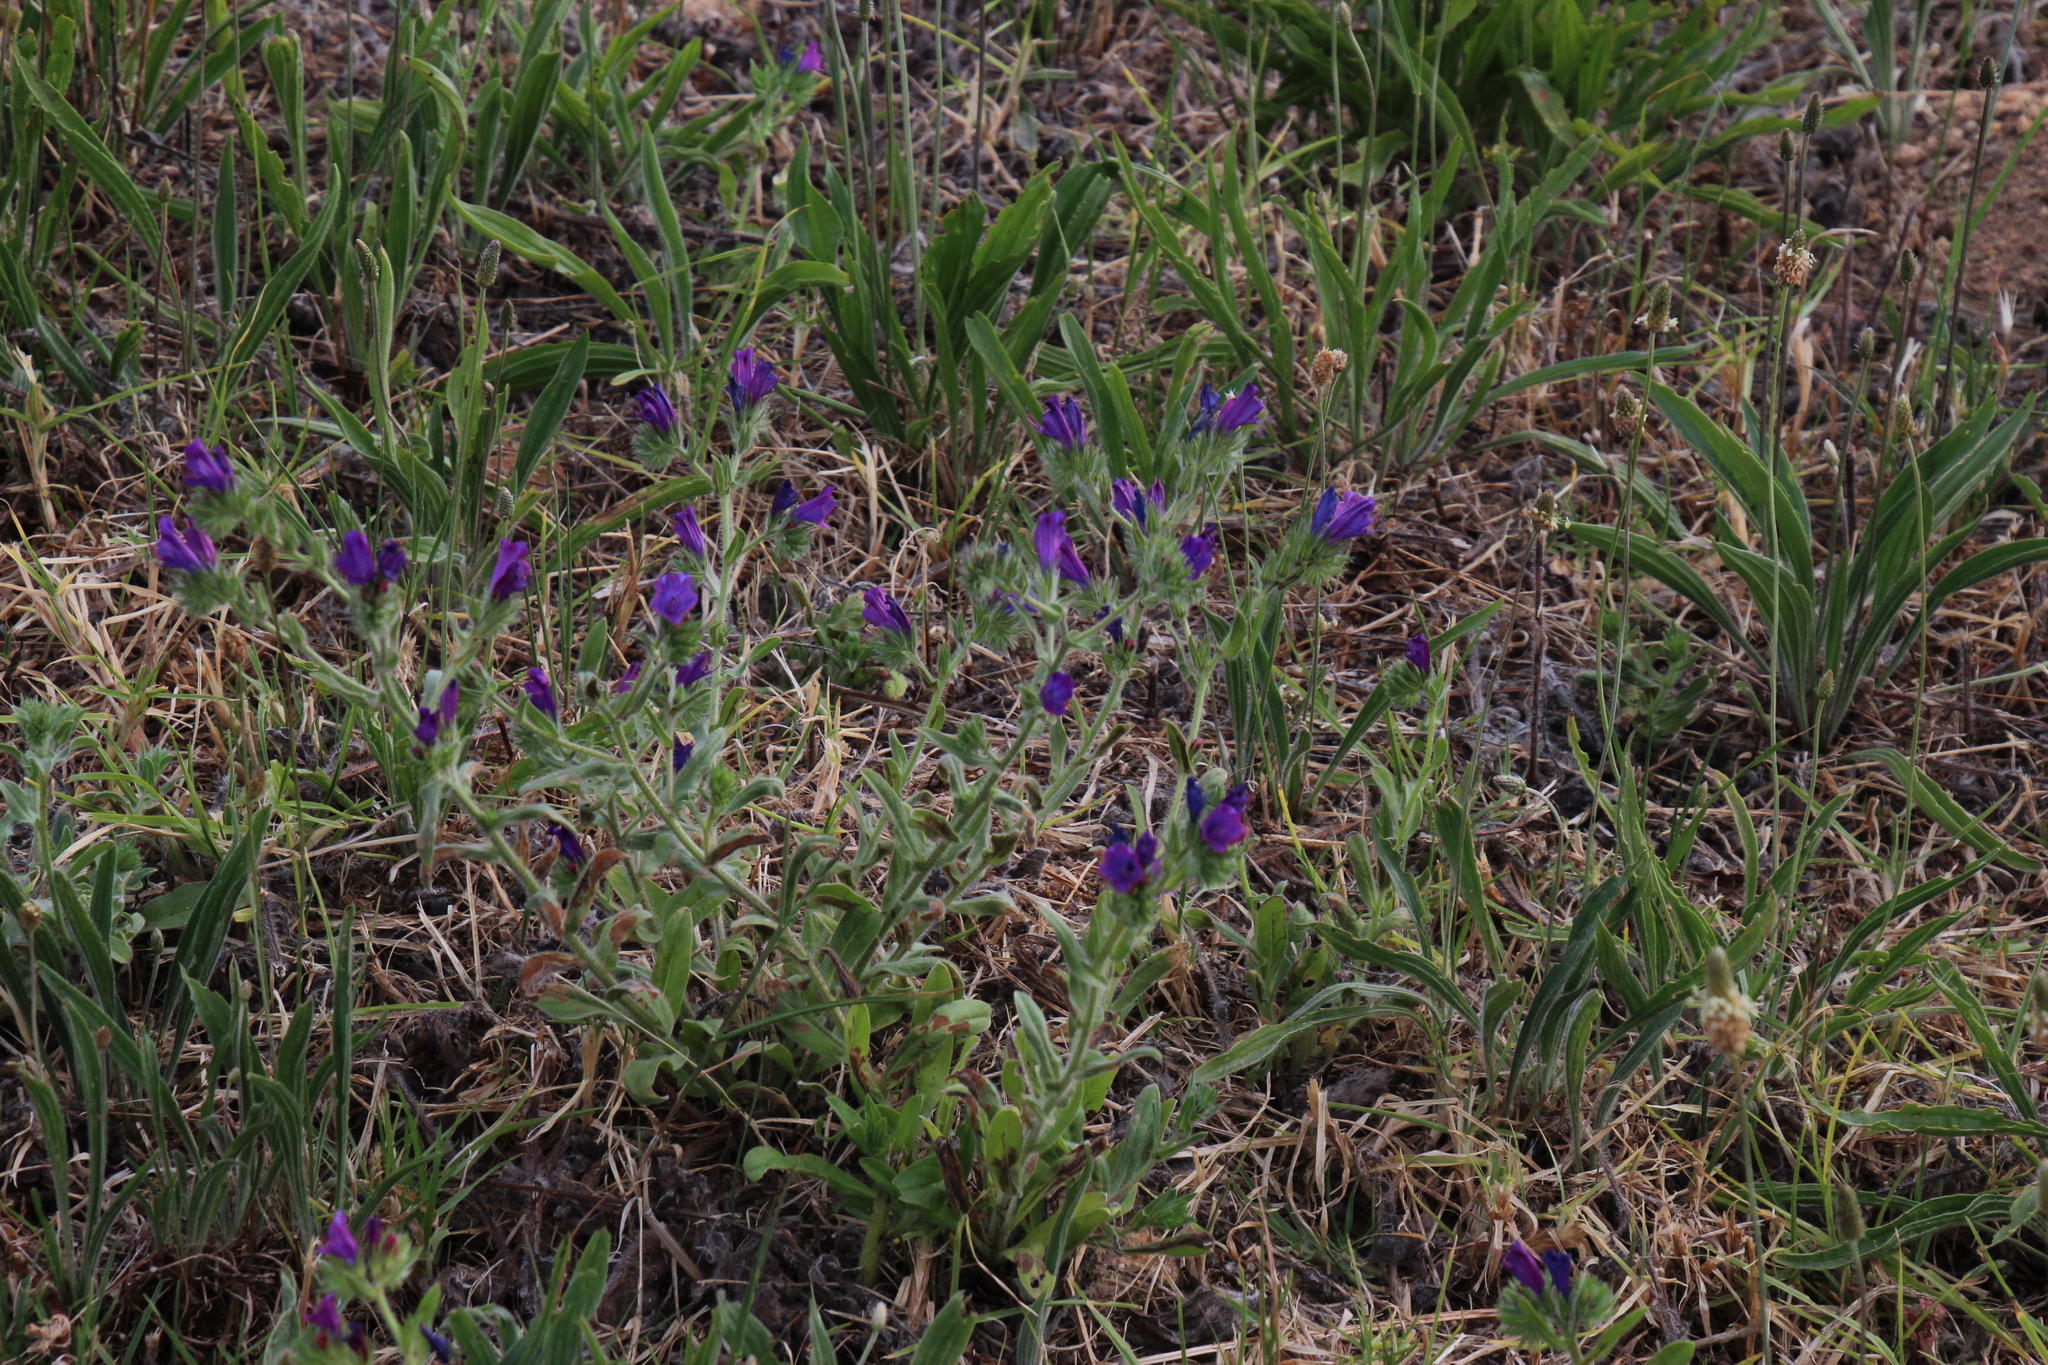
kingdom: Plantae
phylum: Tracheophyta
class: Magnoliopsida
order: Boraginales
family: Boraginaceae
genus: Echium
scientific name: Echium plantagineum
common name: Purple viper's-bugloss
